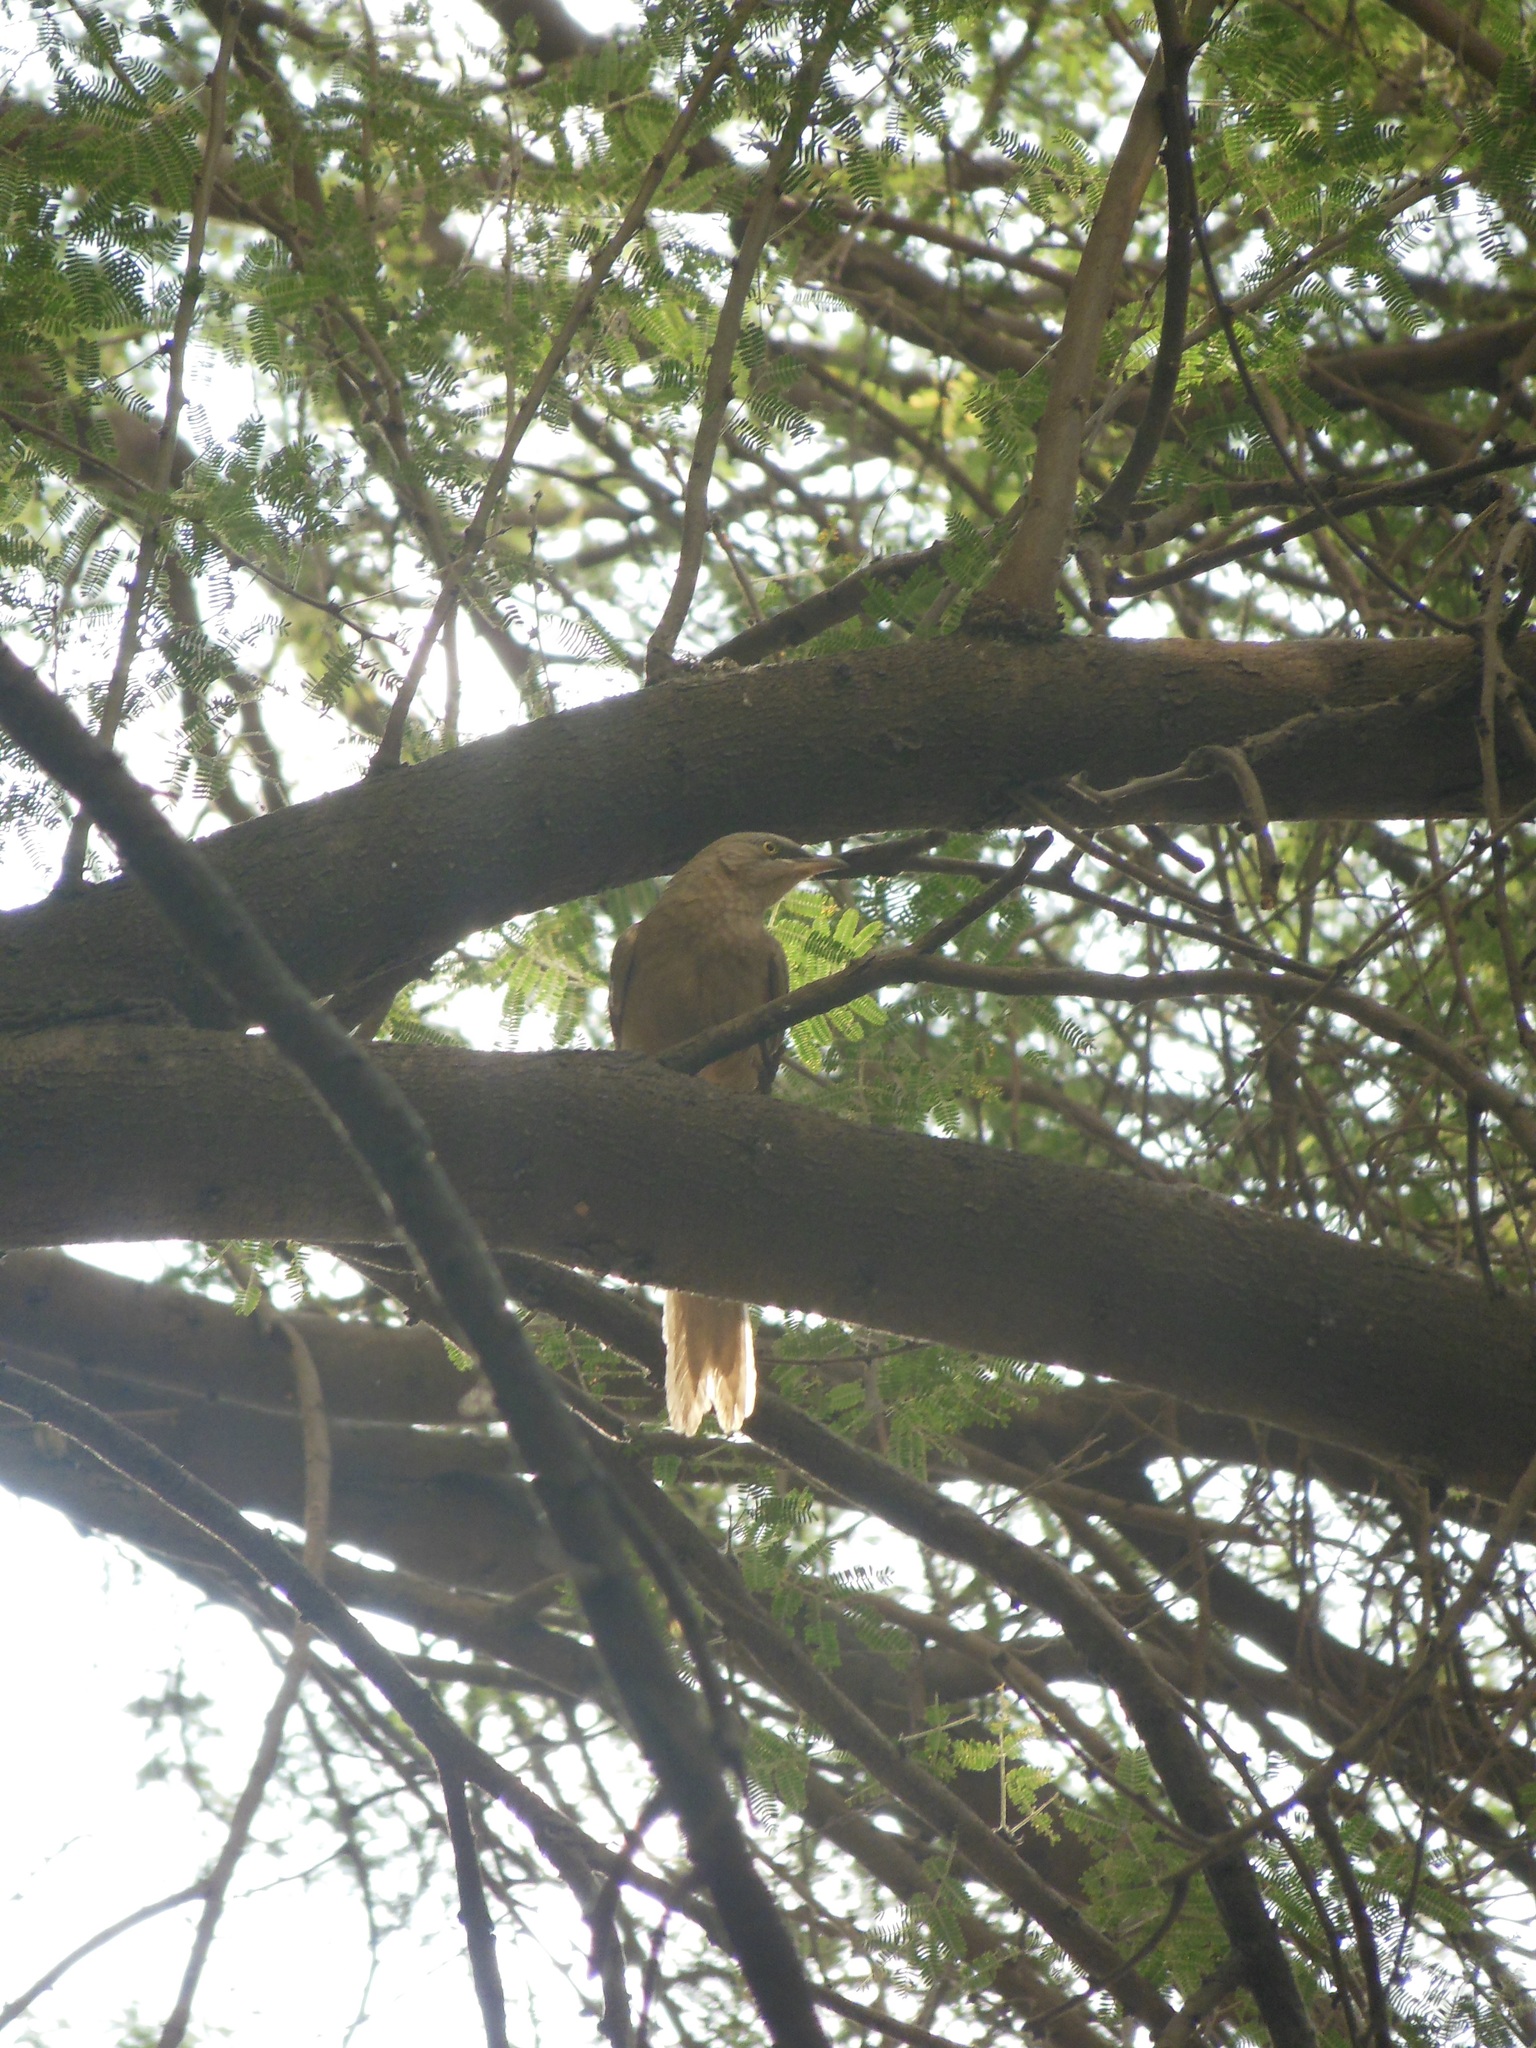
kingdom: Animalia
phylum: Chordata
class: Aves
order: Passeriformes
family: Leiothrichidae
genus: Turdoides
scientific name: Turdoides malcolmi
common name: Large grey babbler
